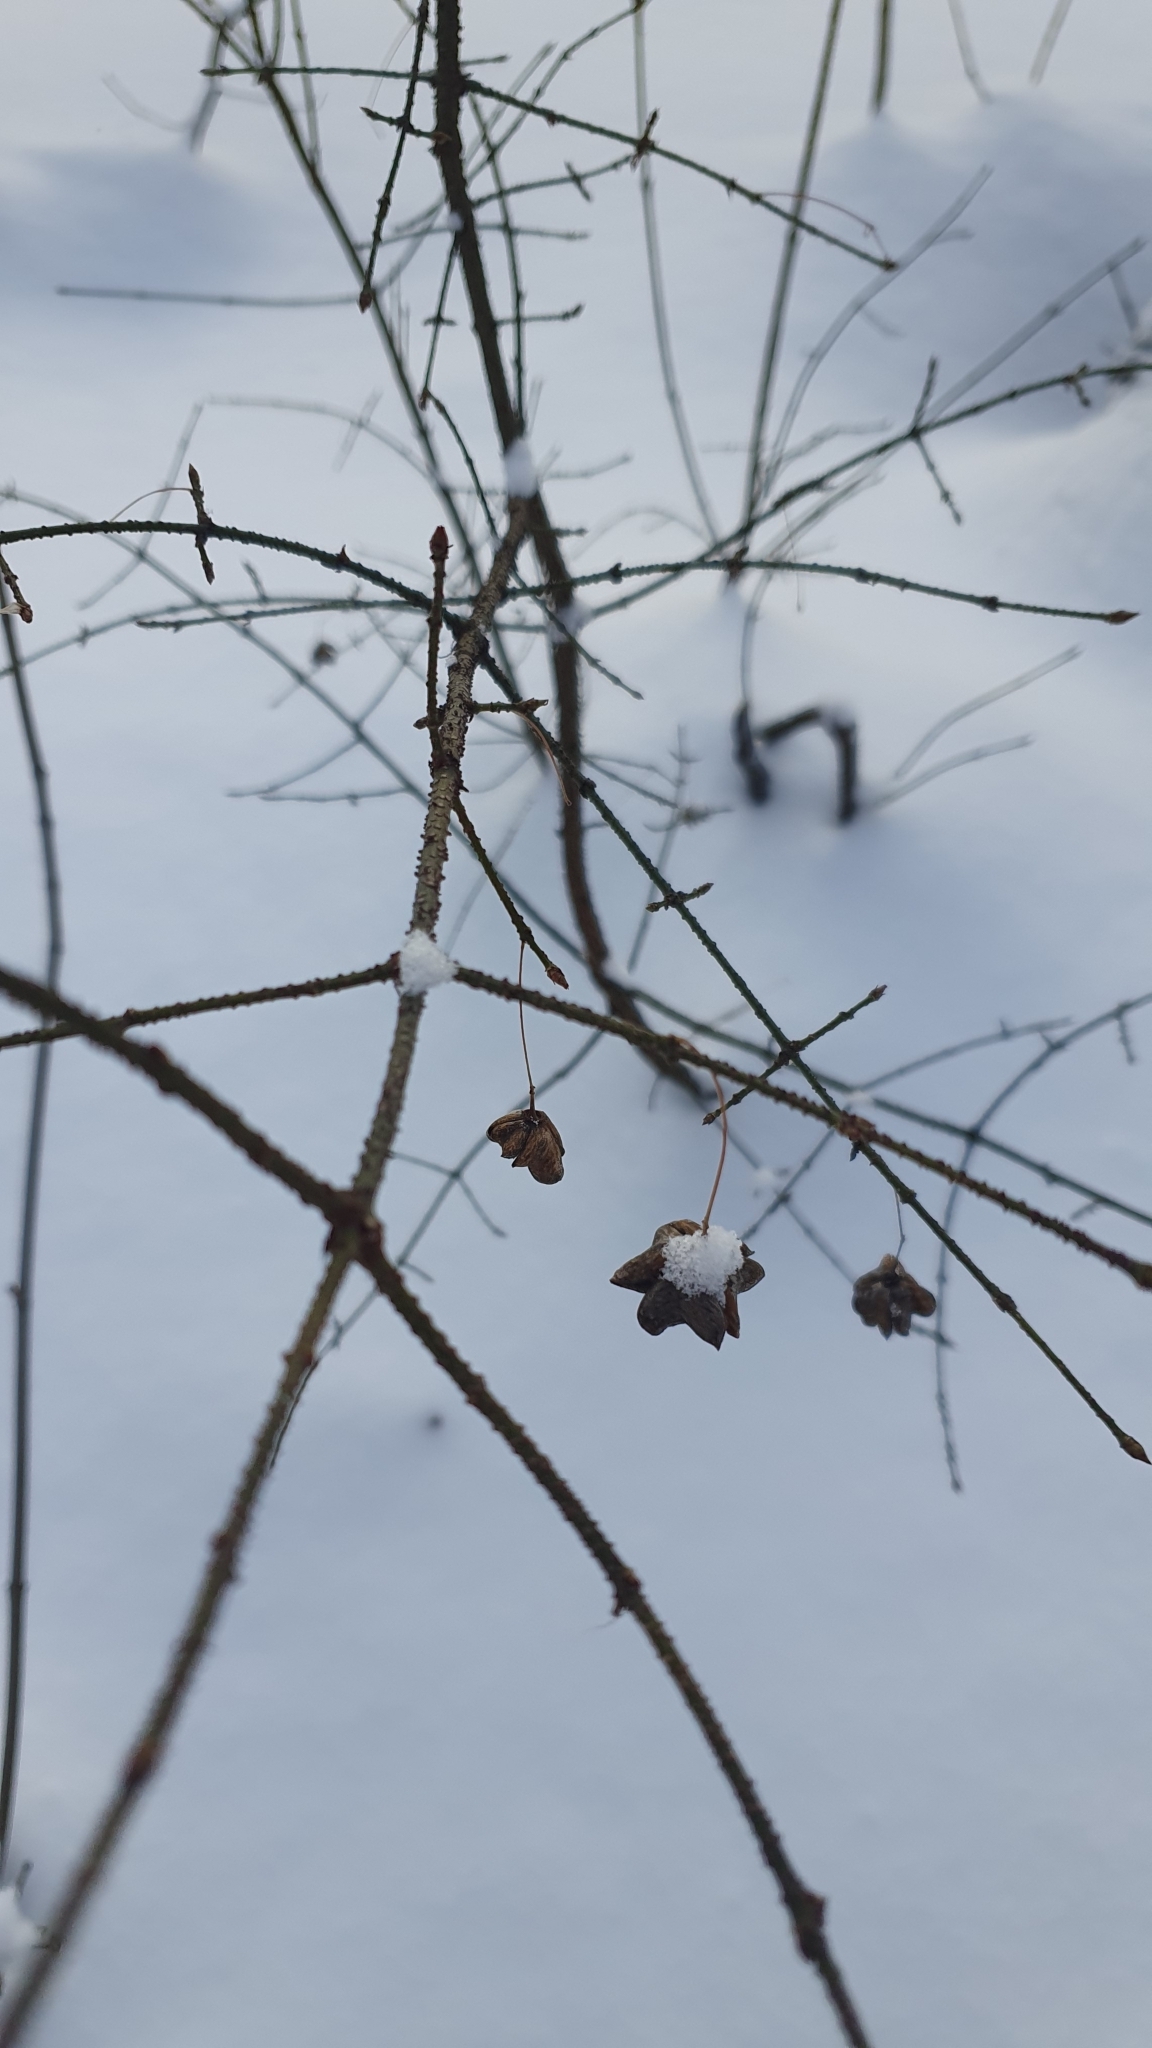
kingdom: Plantae
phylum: Tracheophyta
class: Magnoliopsida
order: Celastrales
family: Celastraceae
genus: Euonymus
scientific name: Euonymus verrucosus
